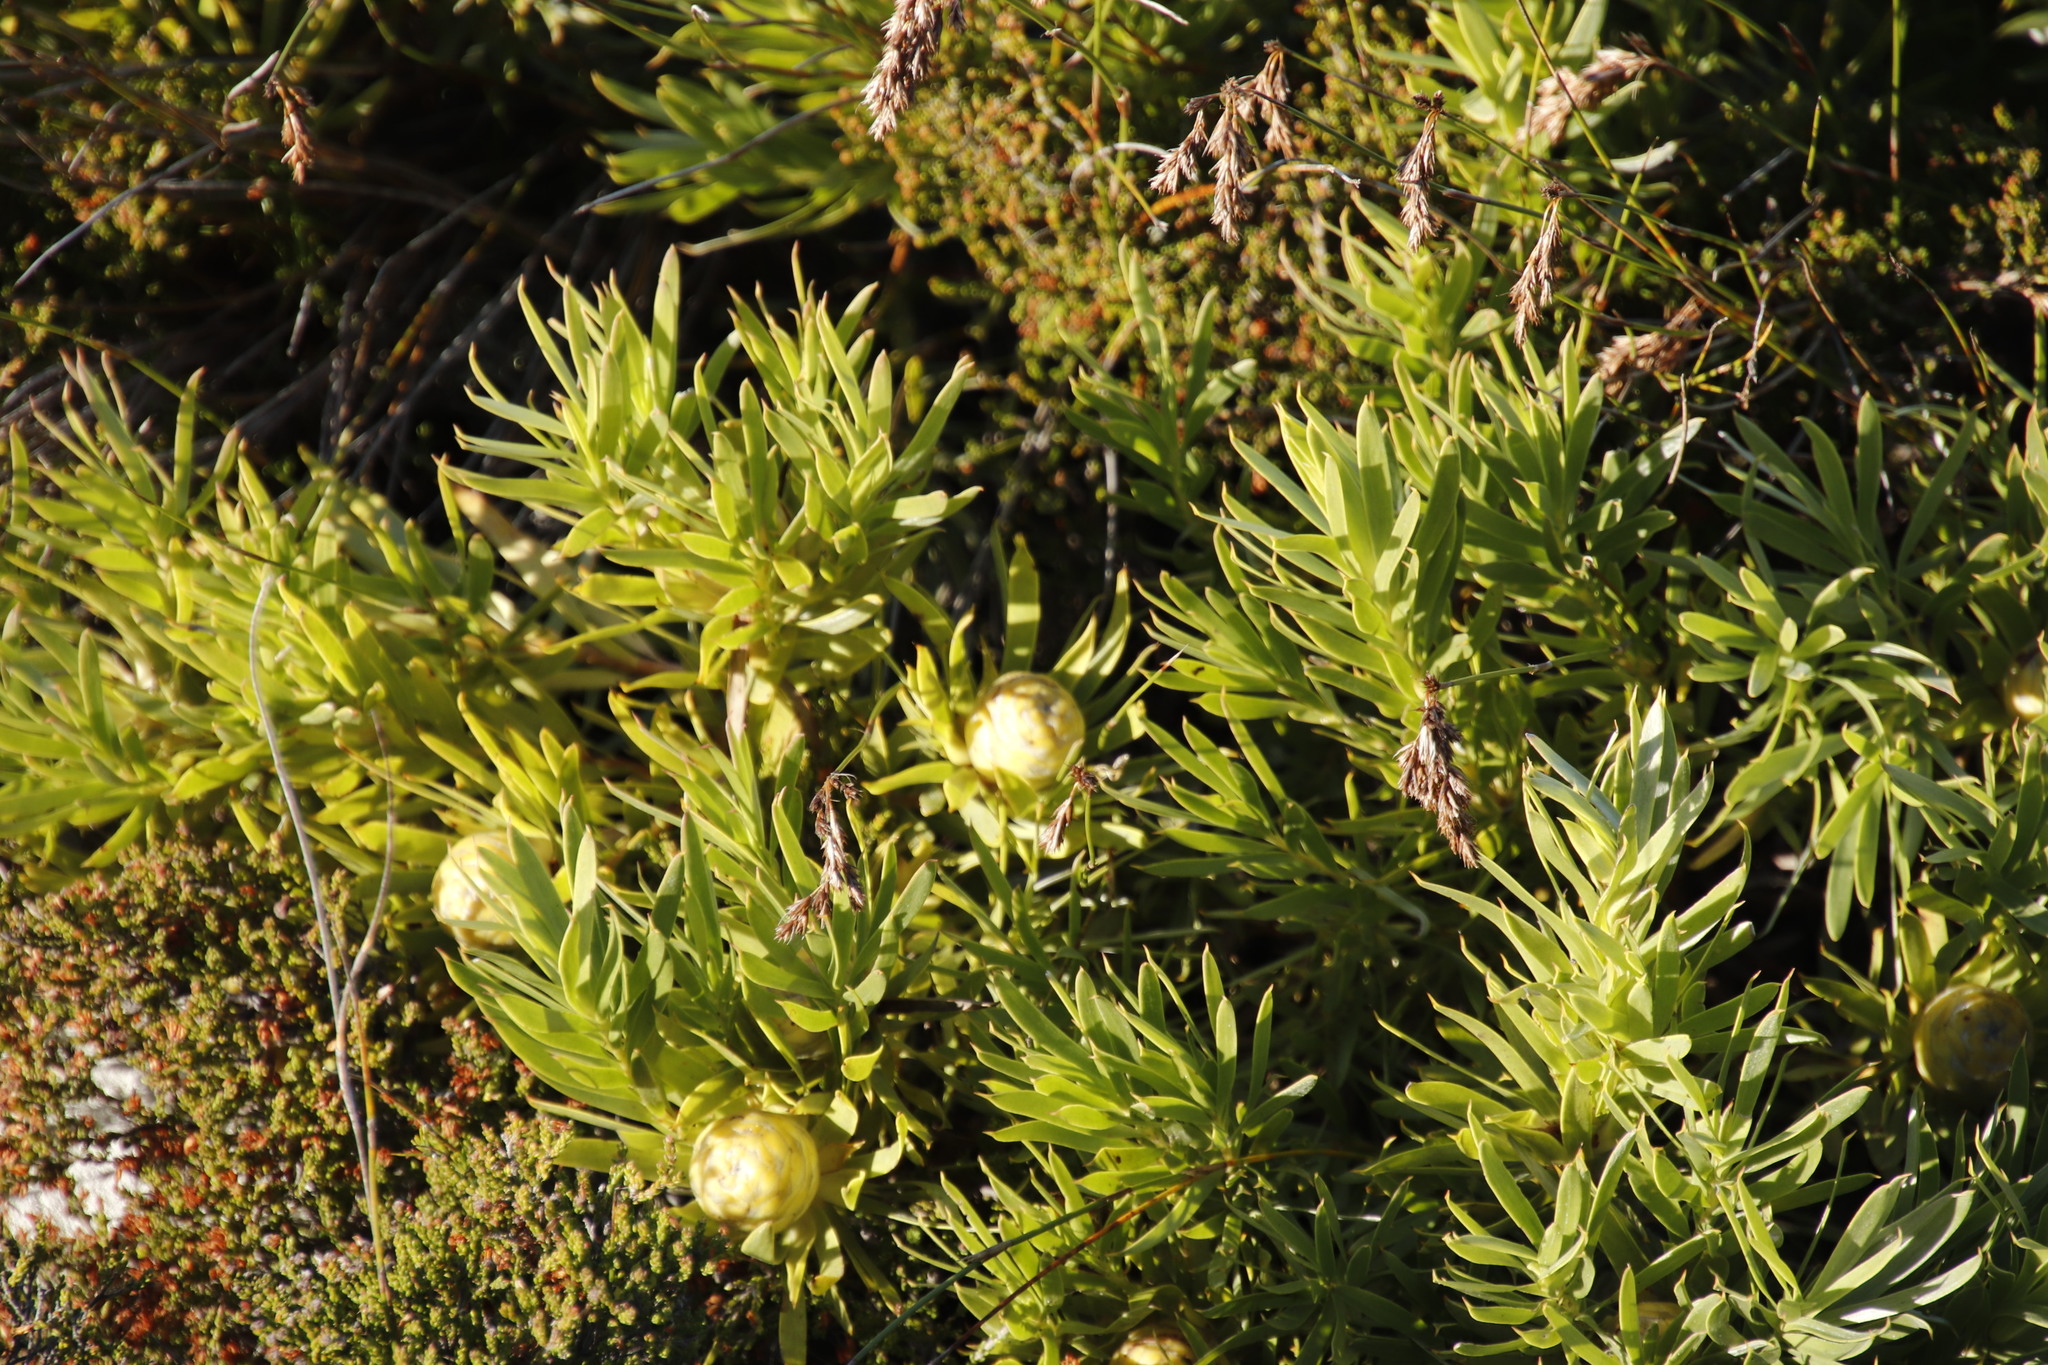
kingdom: Plantae
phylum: Tracheophyta
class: Magnoliopsida
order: Proteales
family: Proteaceae
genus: Leucadendron
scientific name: Leucadendron xanthoconus
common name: Sickle-leaf conebush
